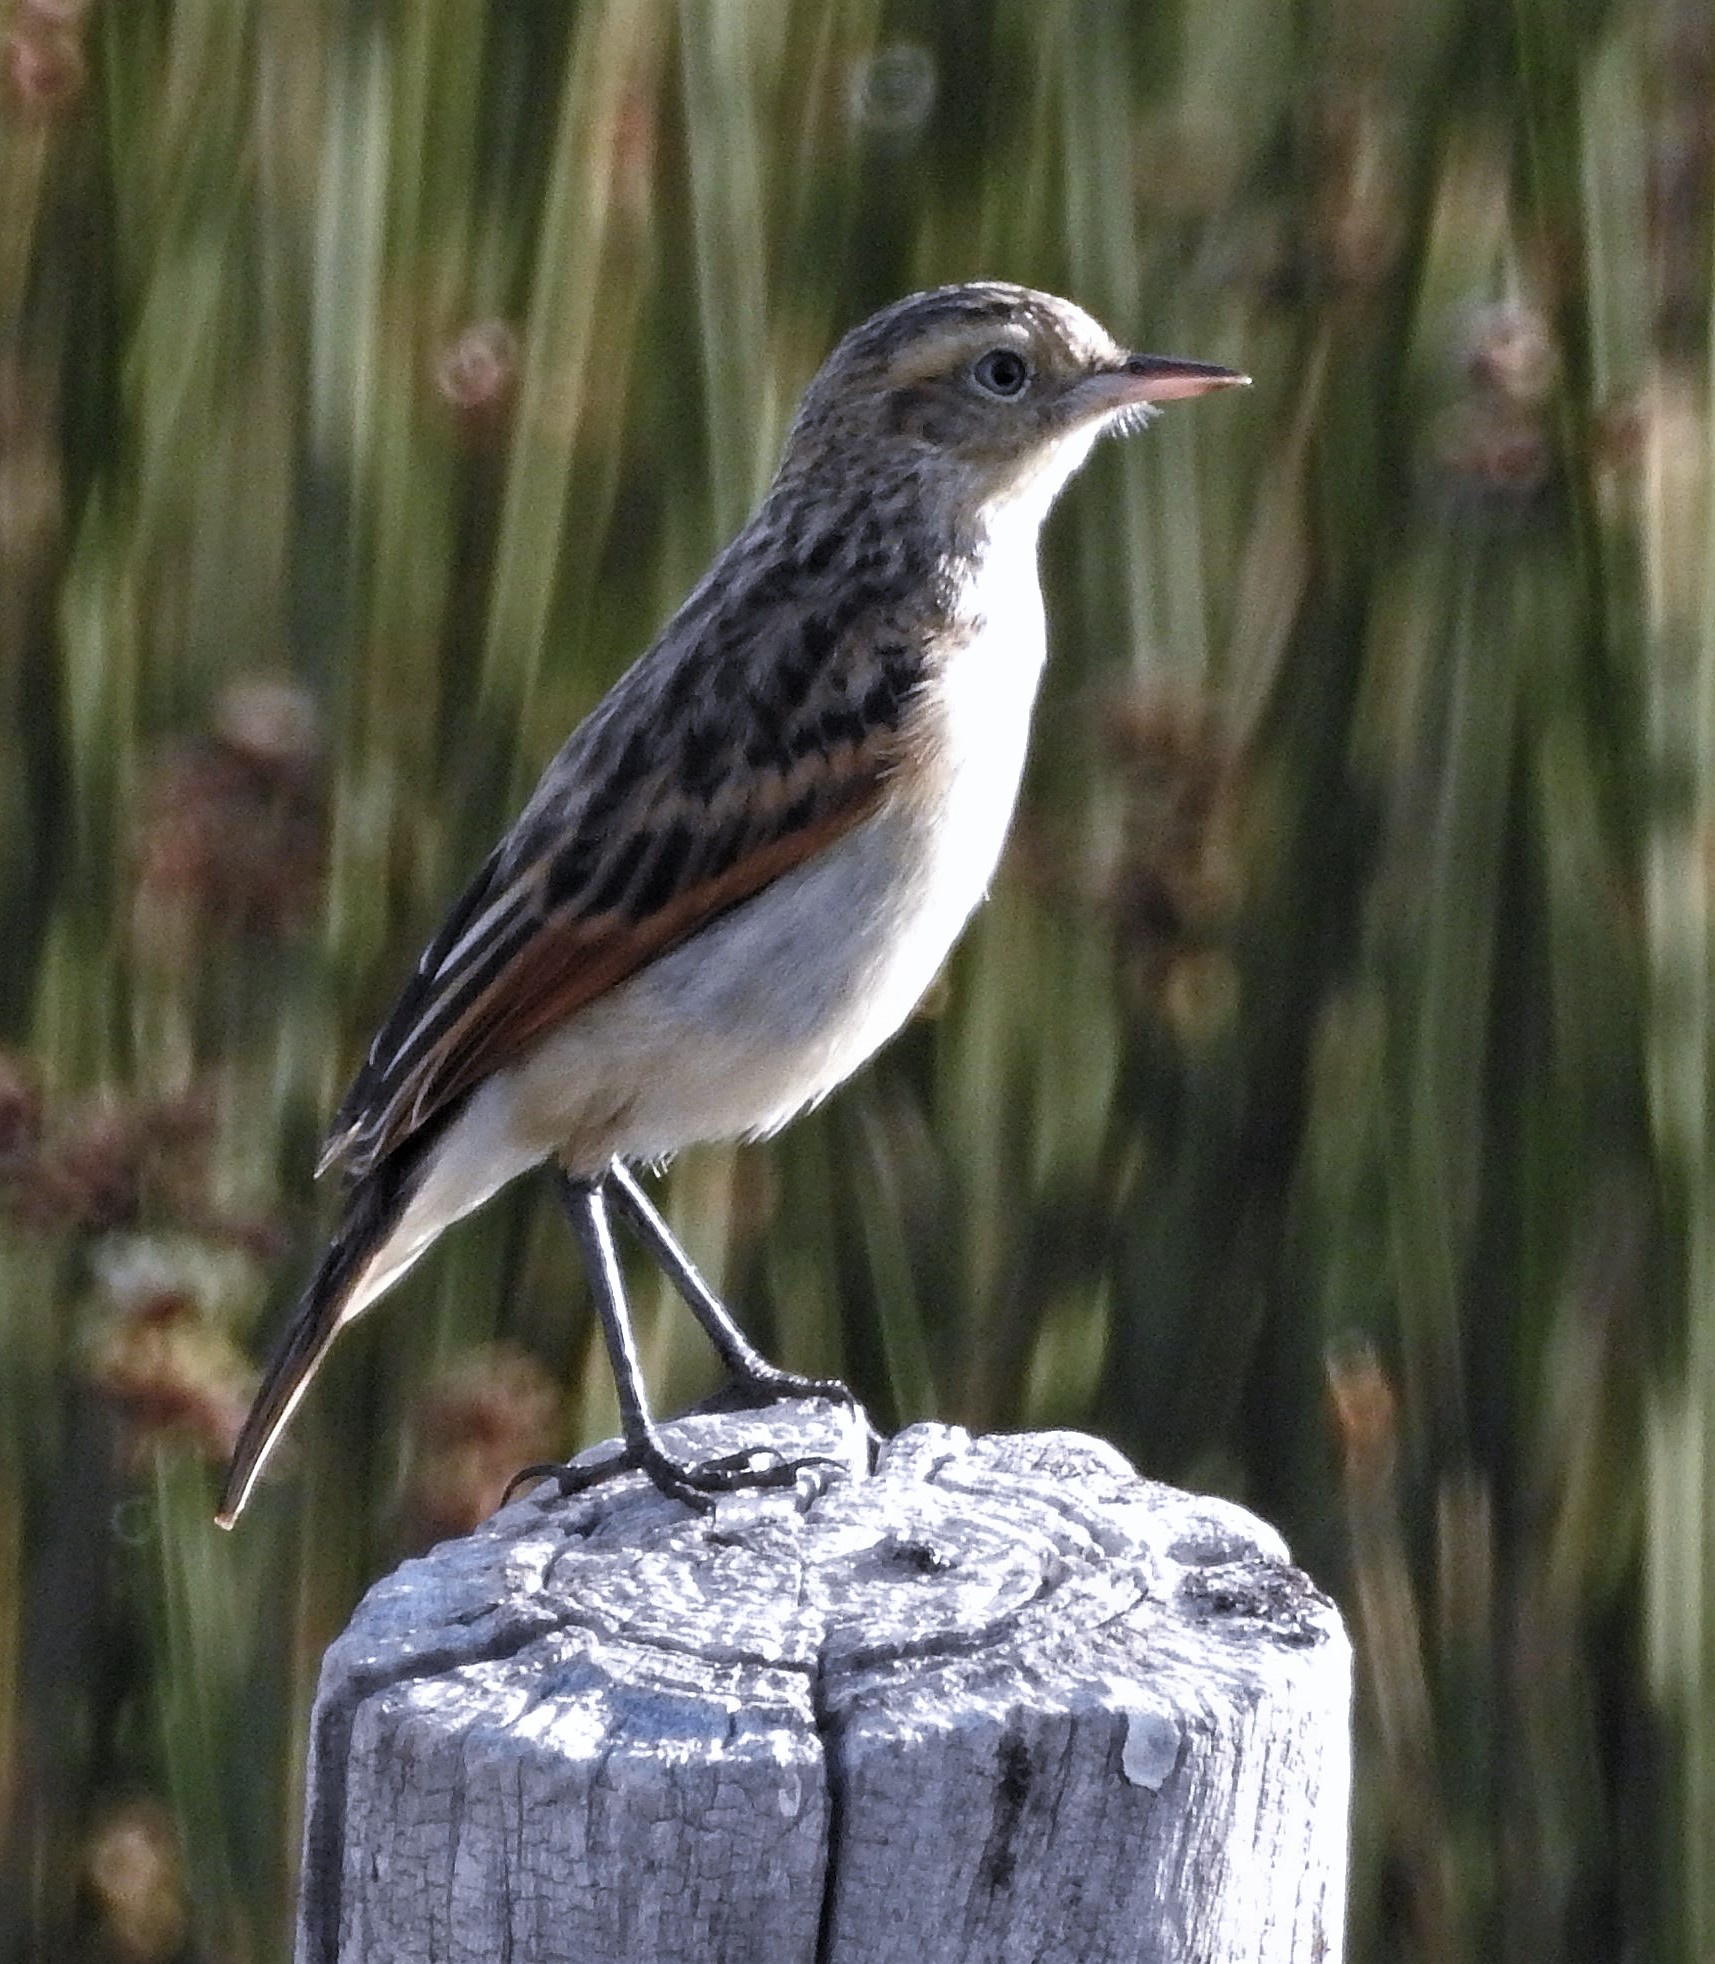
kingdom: Animalia
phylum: Chordata
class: Aves
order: Passeriformes
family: Tyrannidae
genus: Hymenops
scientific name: Hymenops perspicillatus
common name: Spectacled tyrant
